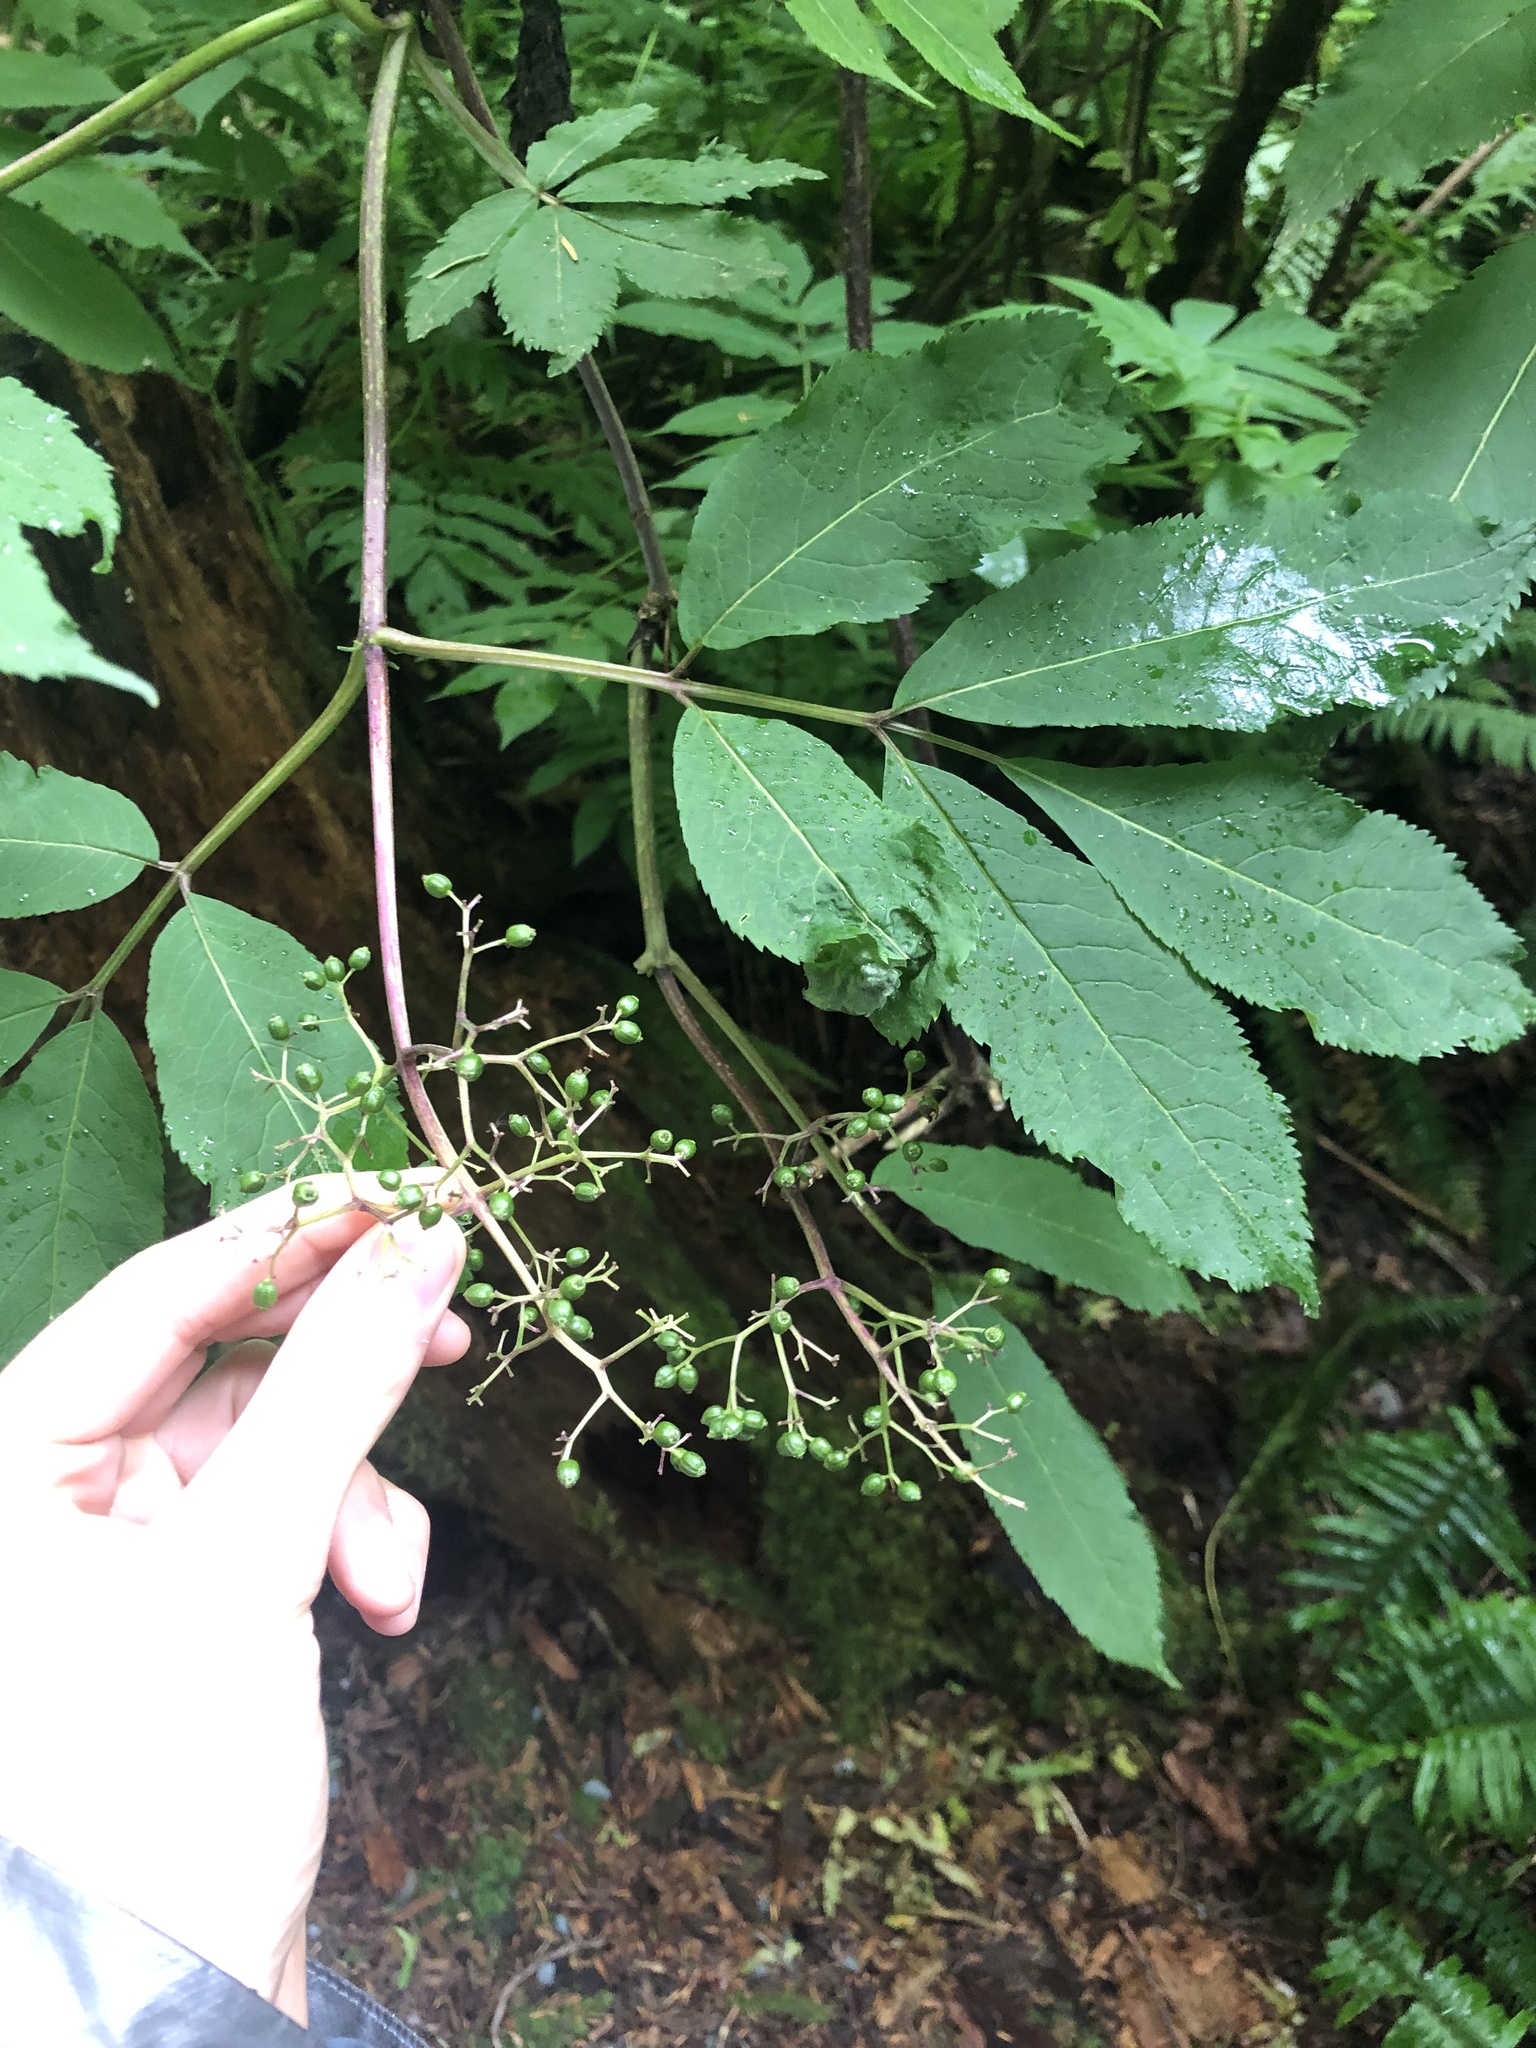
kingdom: Plantae
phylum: Tracheophyta
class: Magnoliopsida
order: Dipsacales
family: Viburnaceae
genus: Sambucus
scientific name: Sambucus racemosa
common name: Red-berried elder
